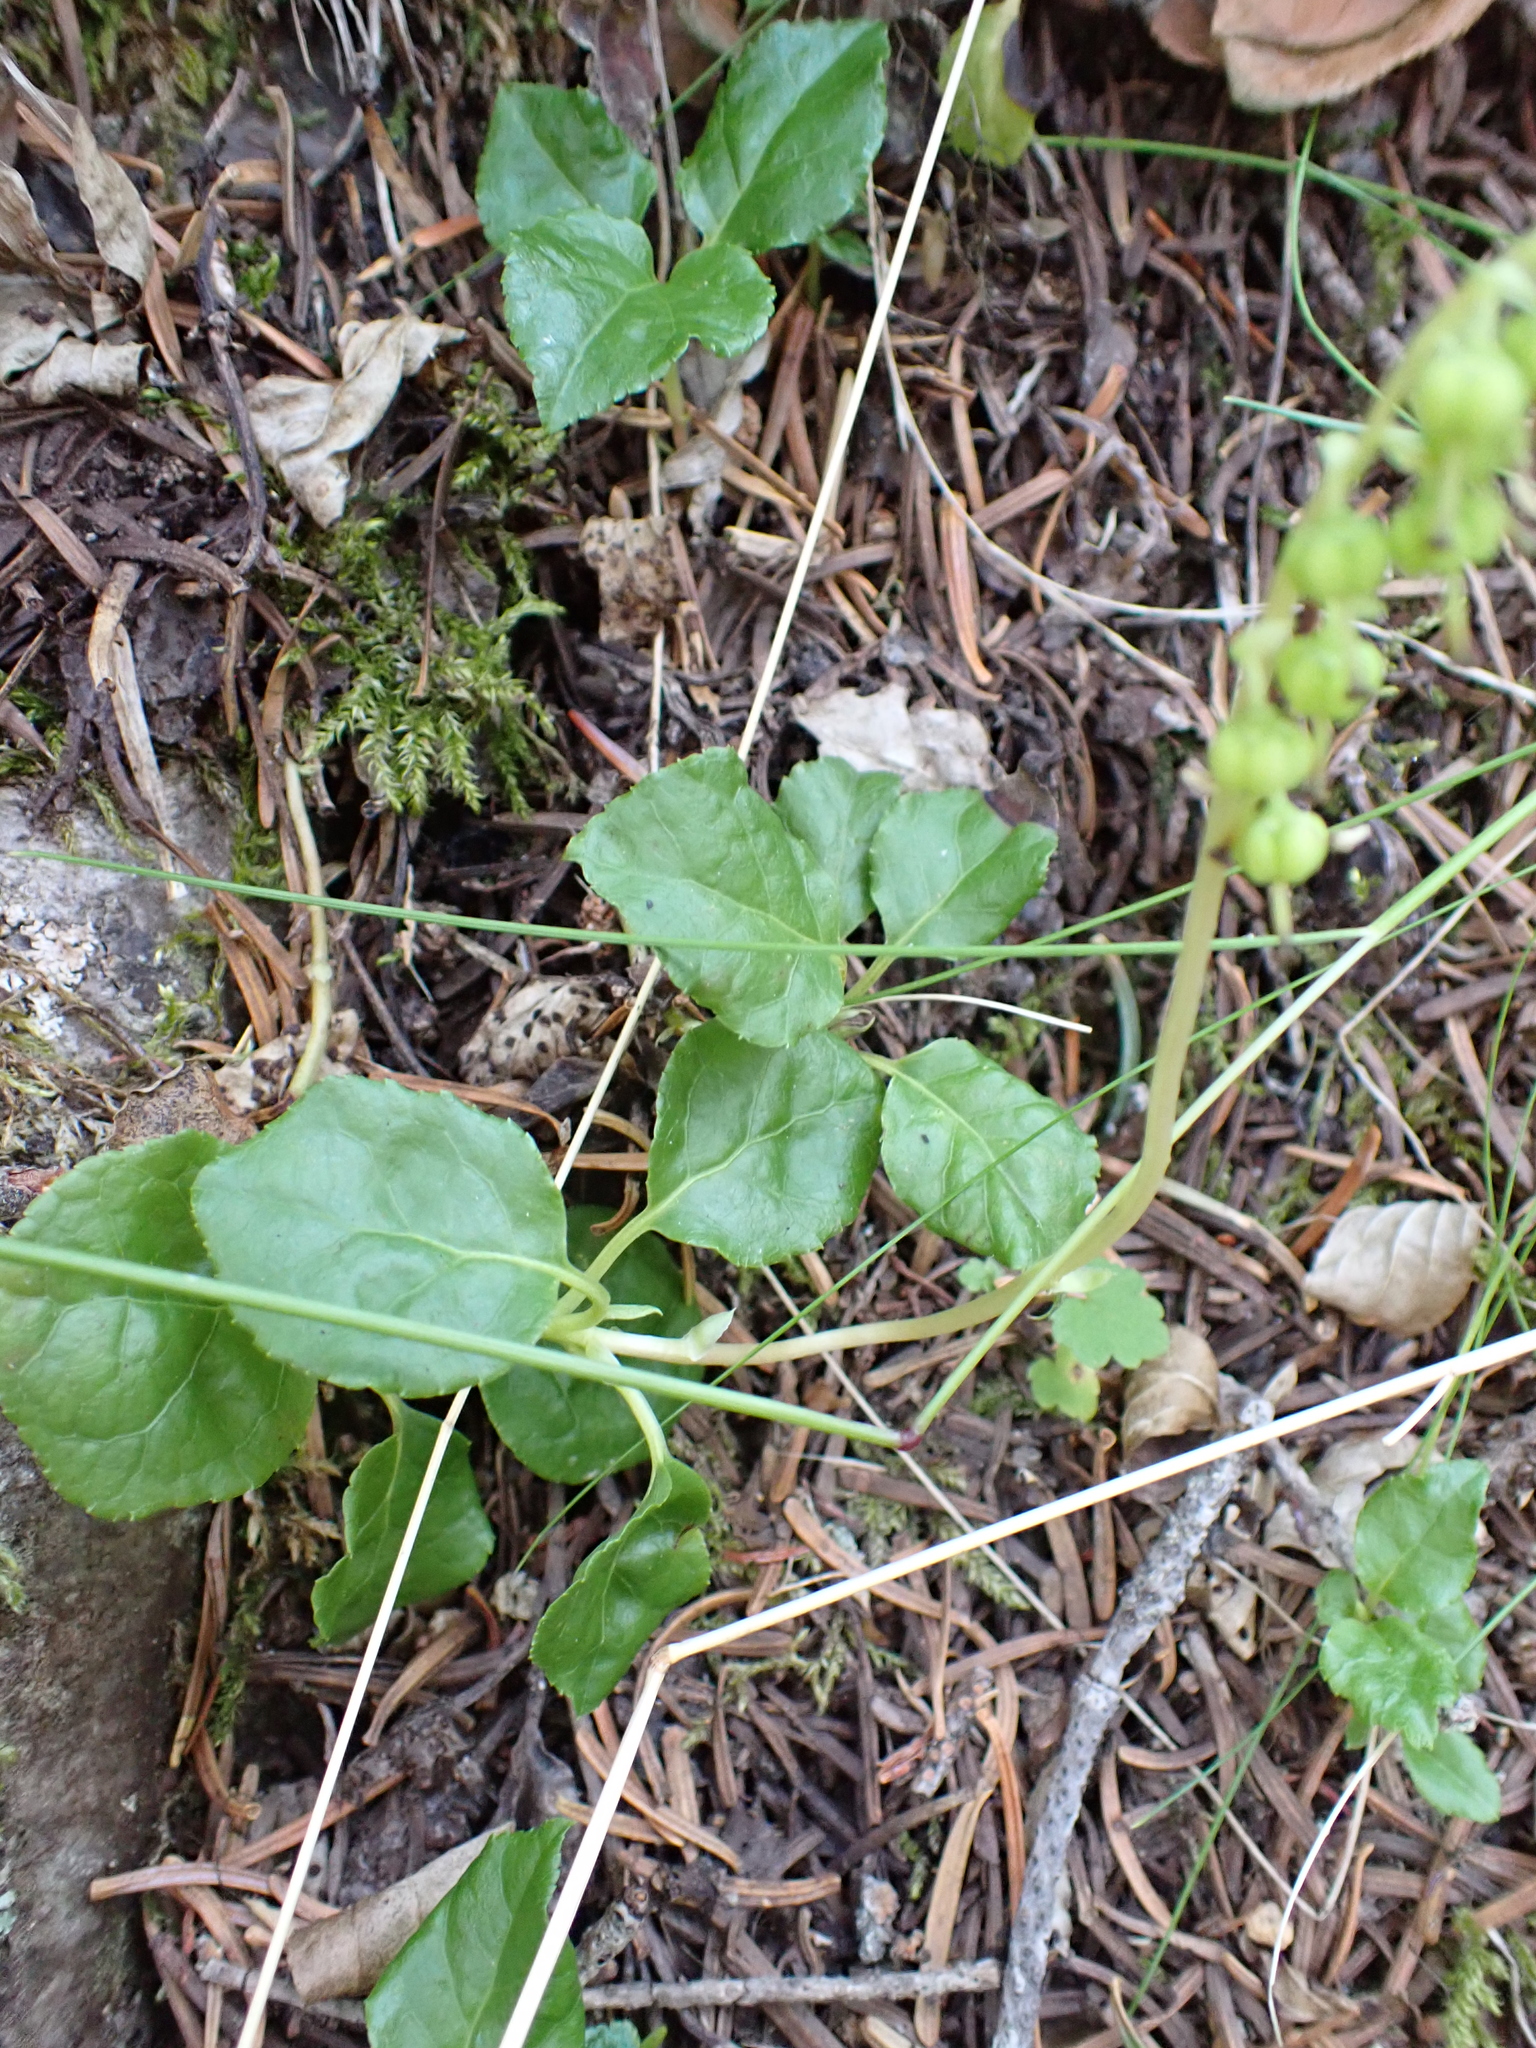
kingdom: Plantae
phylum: Tracheophyta
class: Magnoliopsida
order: Ericales
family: Ericaceae
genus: Orthilia
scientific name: Orthilia secunda
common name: One-sided orthilia
